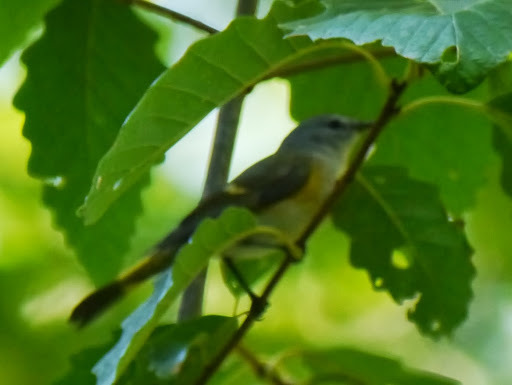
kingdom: Animalia
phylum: Chordata
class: Aves
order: Passeriformes
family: Parulidae
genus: Setophaga
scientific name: Setophaga ruticilla
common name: American redstart
